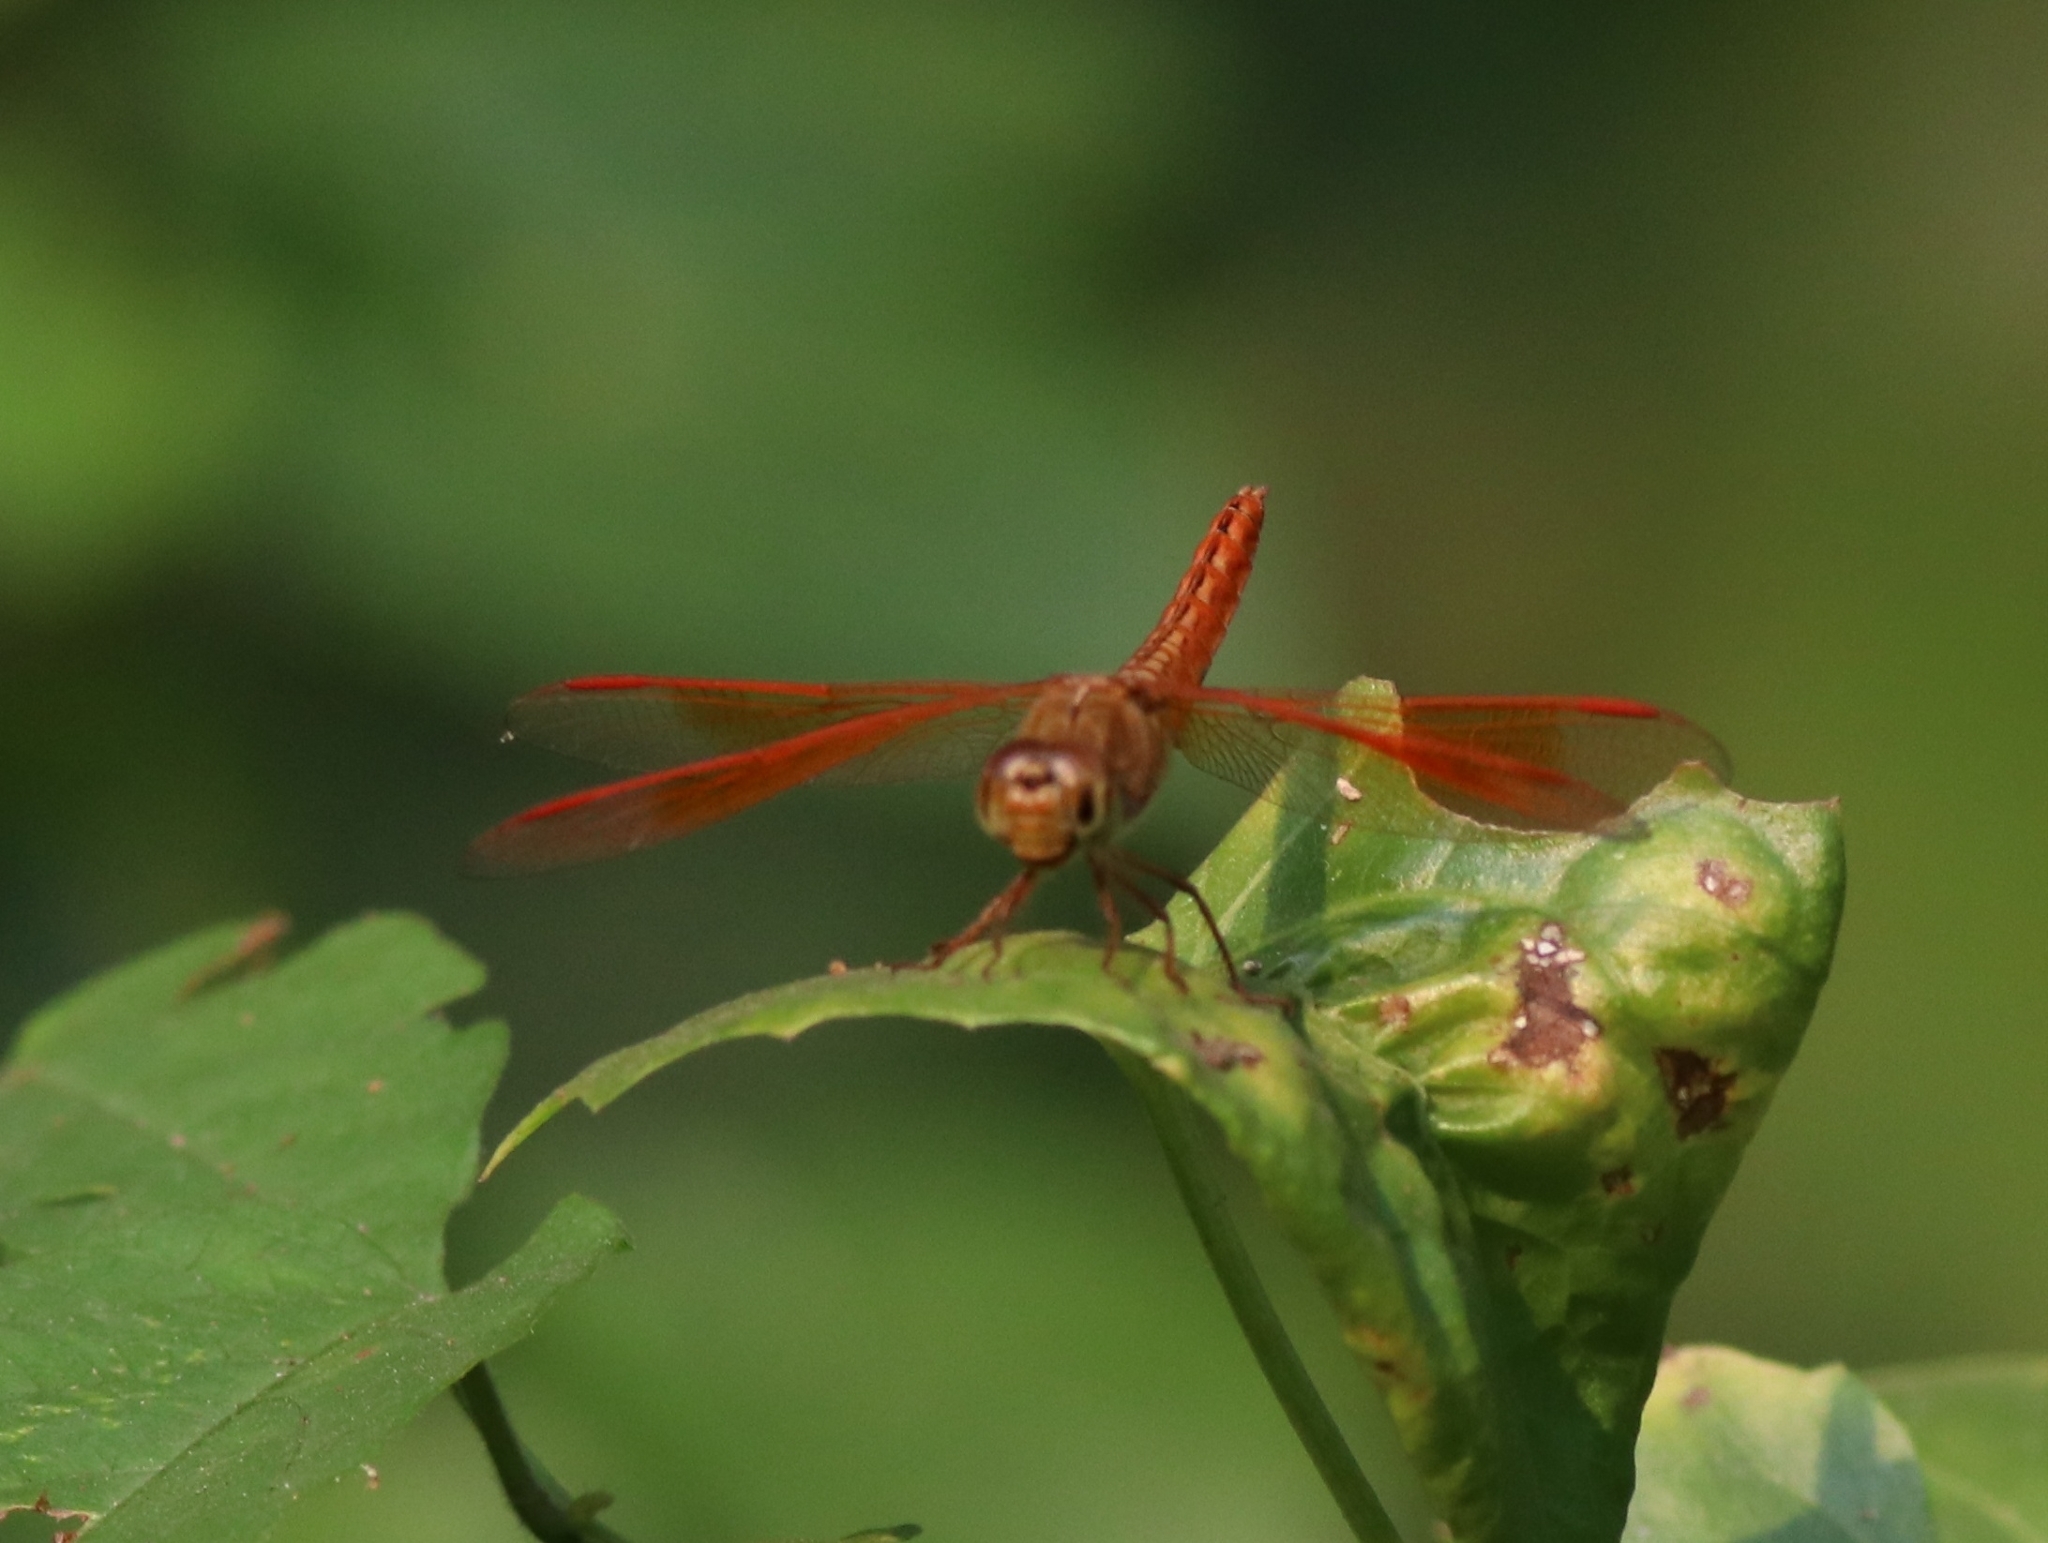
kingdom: Animalia
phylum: Arthropoda
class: Insecta
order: Odonata
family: Libellulidae
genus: Brachythemis
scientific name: Brachythemis contaminata
